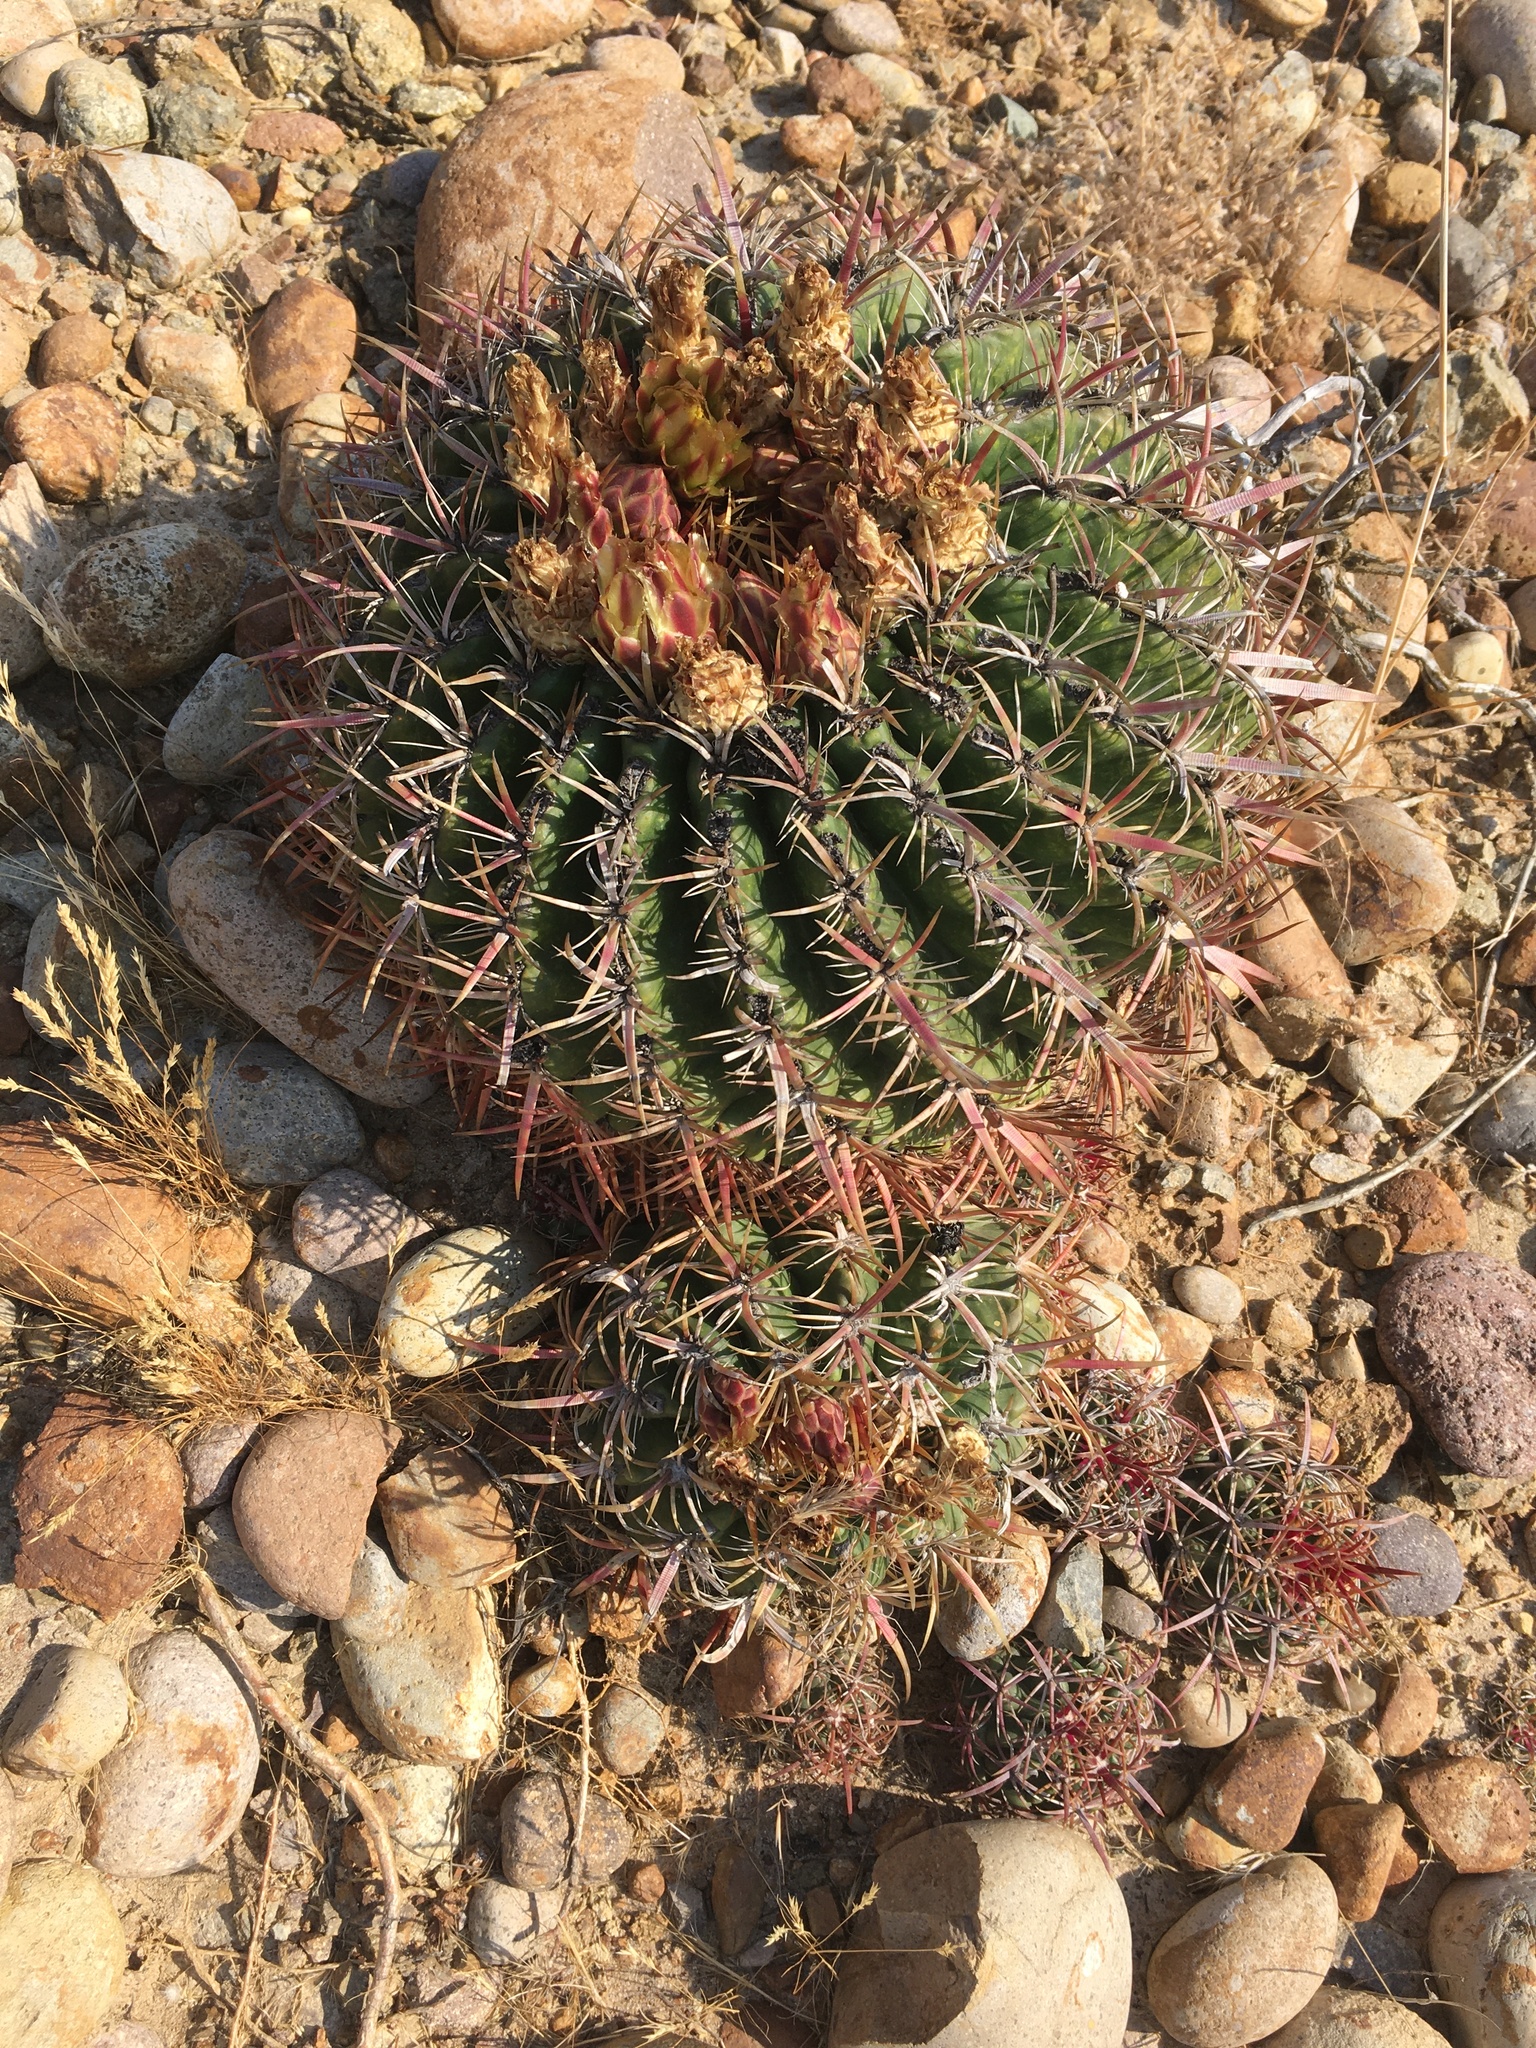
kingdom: Plantae
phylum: Tracheophyta
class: Magnoliopsida
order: Caryophyllales
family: Cactaceae
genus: Ferocactus
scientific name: Ferocactus viridescens
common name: San diego barrel cactus
